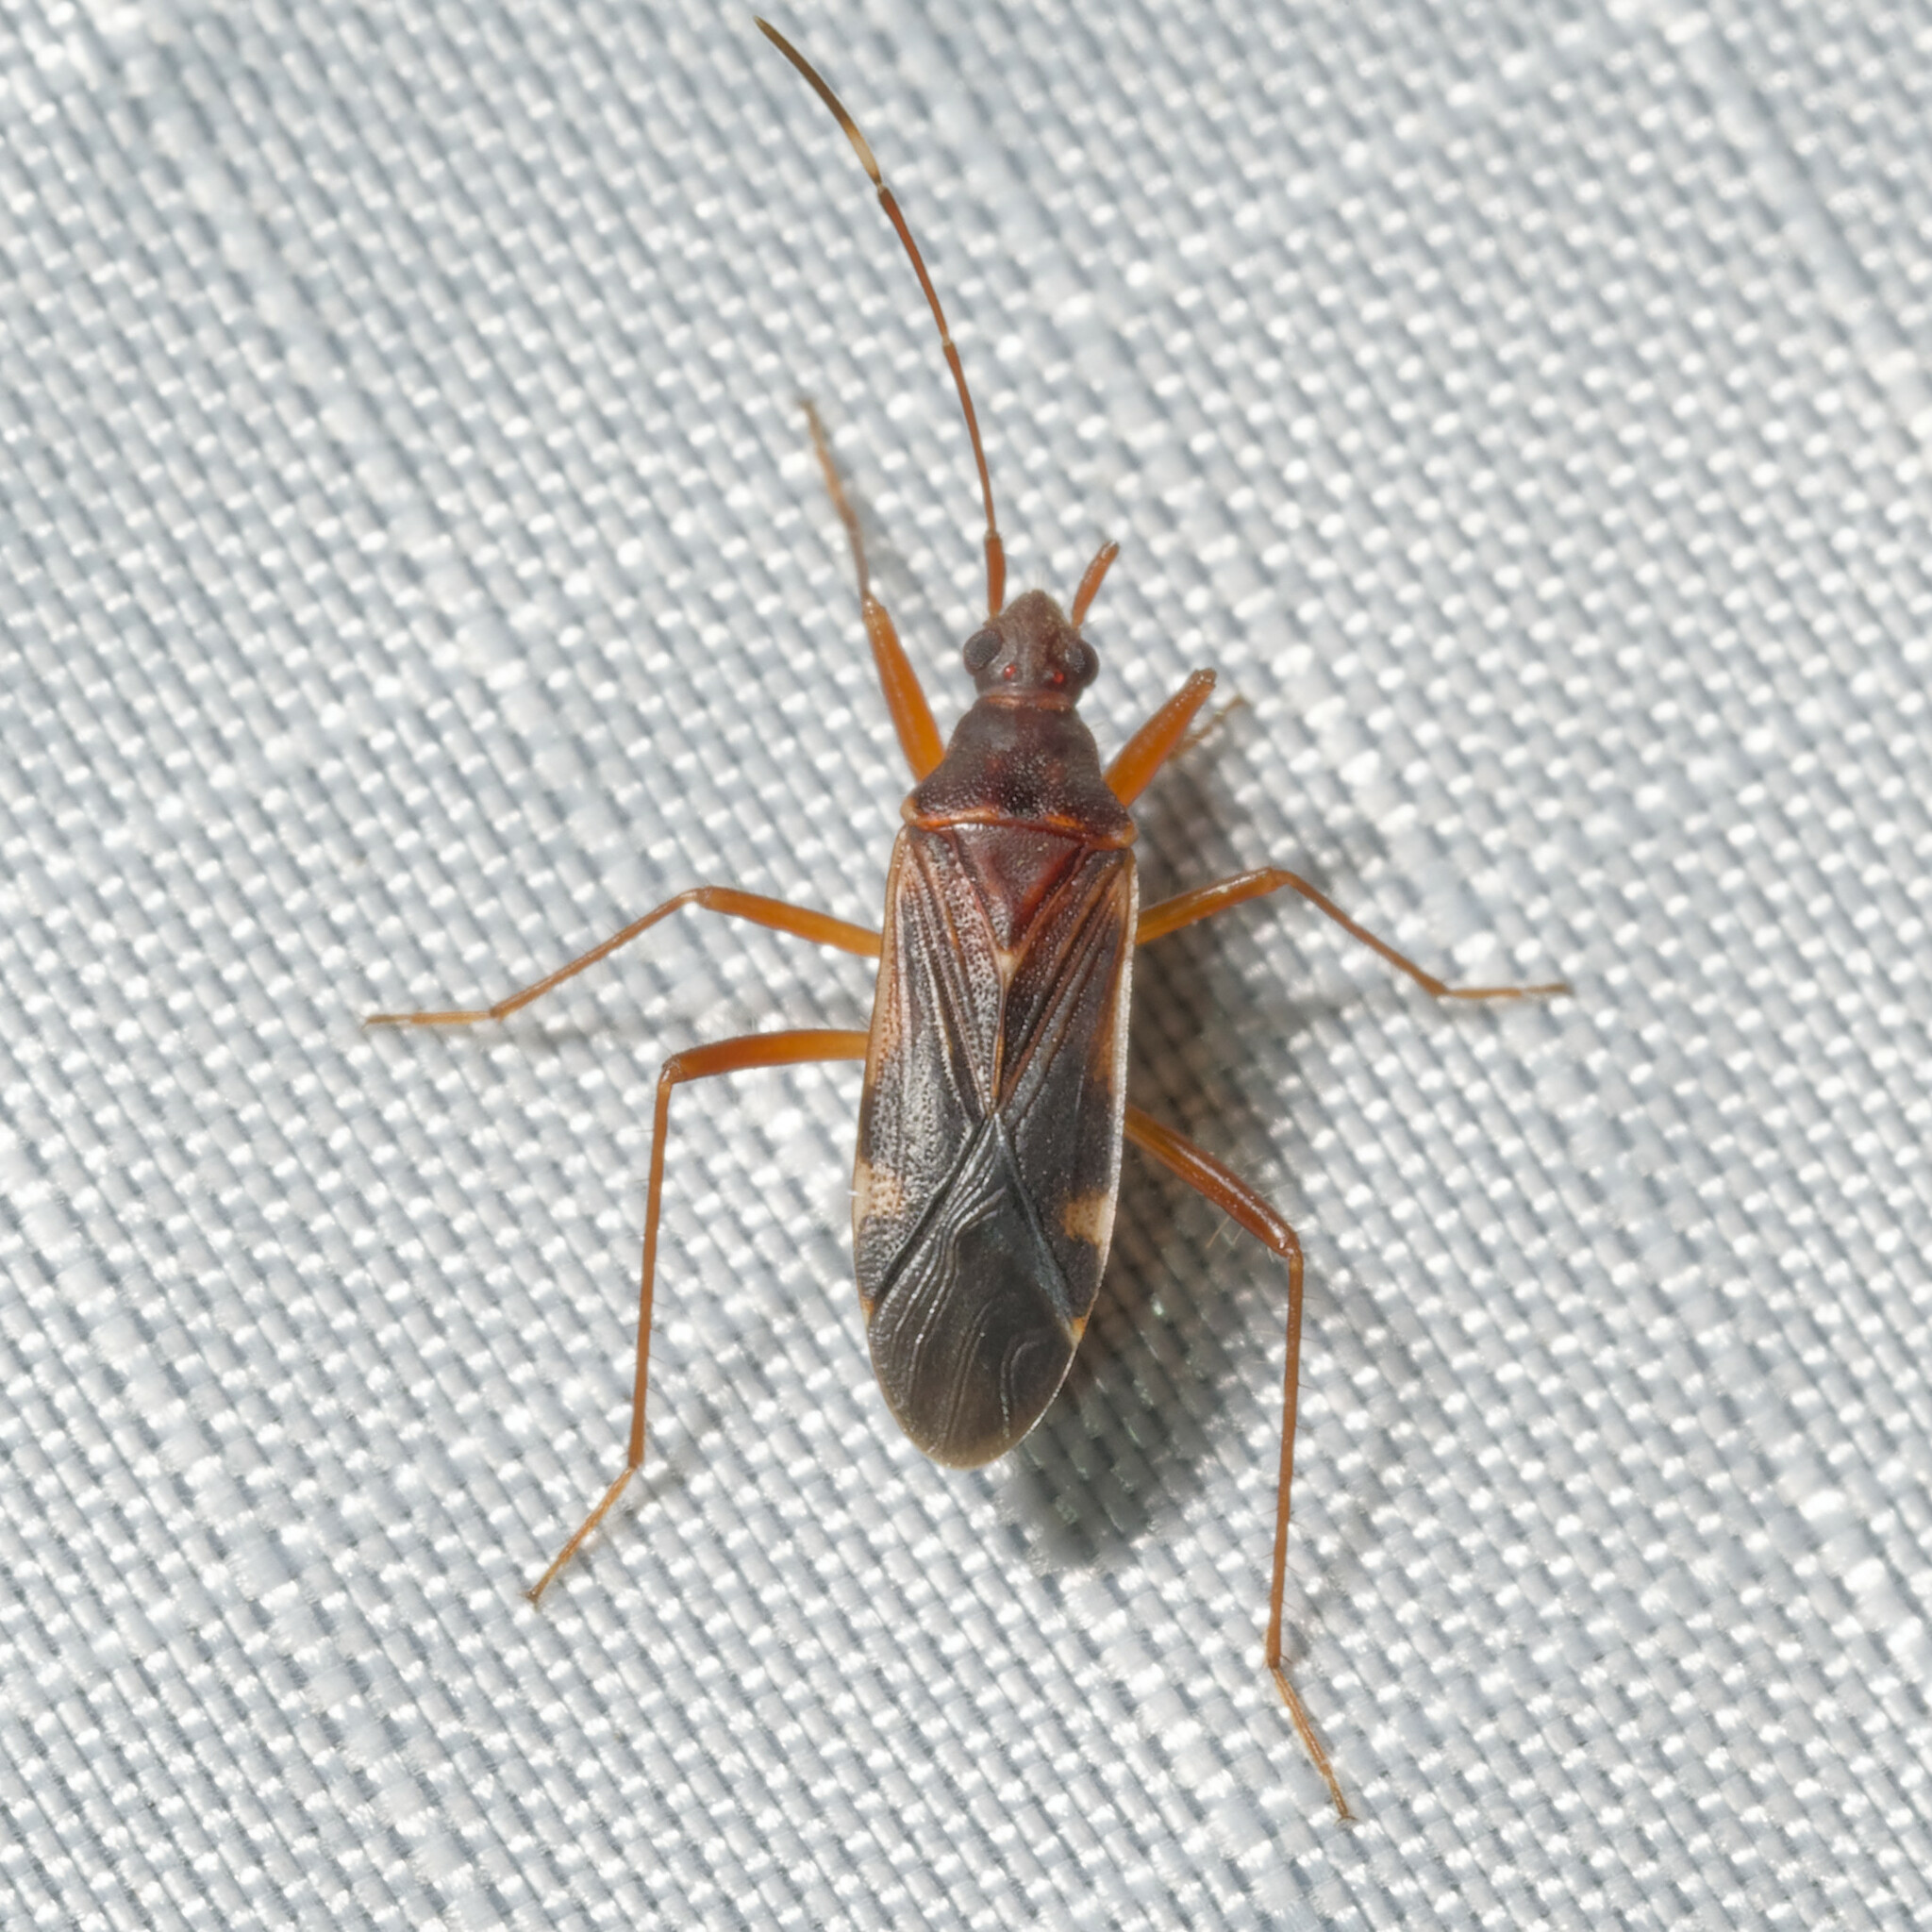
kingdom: Animalia
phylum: Arthropoda
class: Insecta
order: Hemiptera
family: Rhyparochromidae
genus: Ozophora
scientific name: Ozophora trinotata
